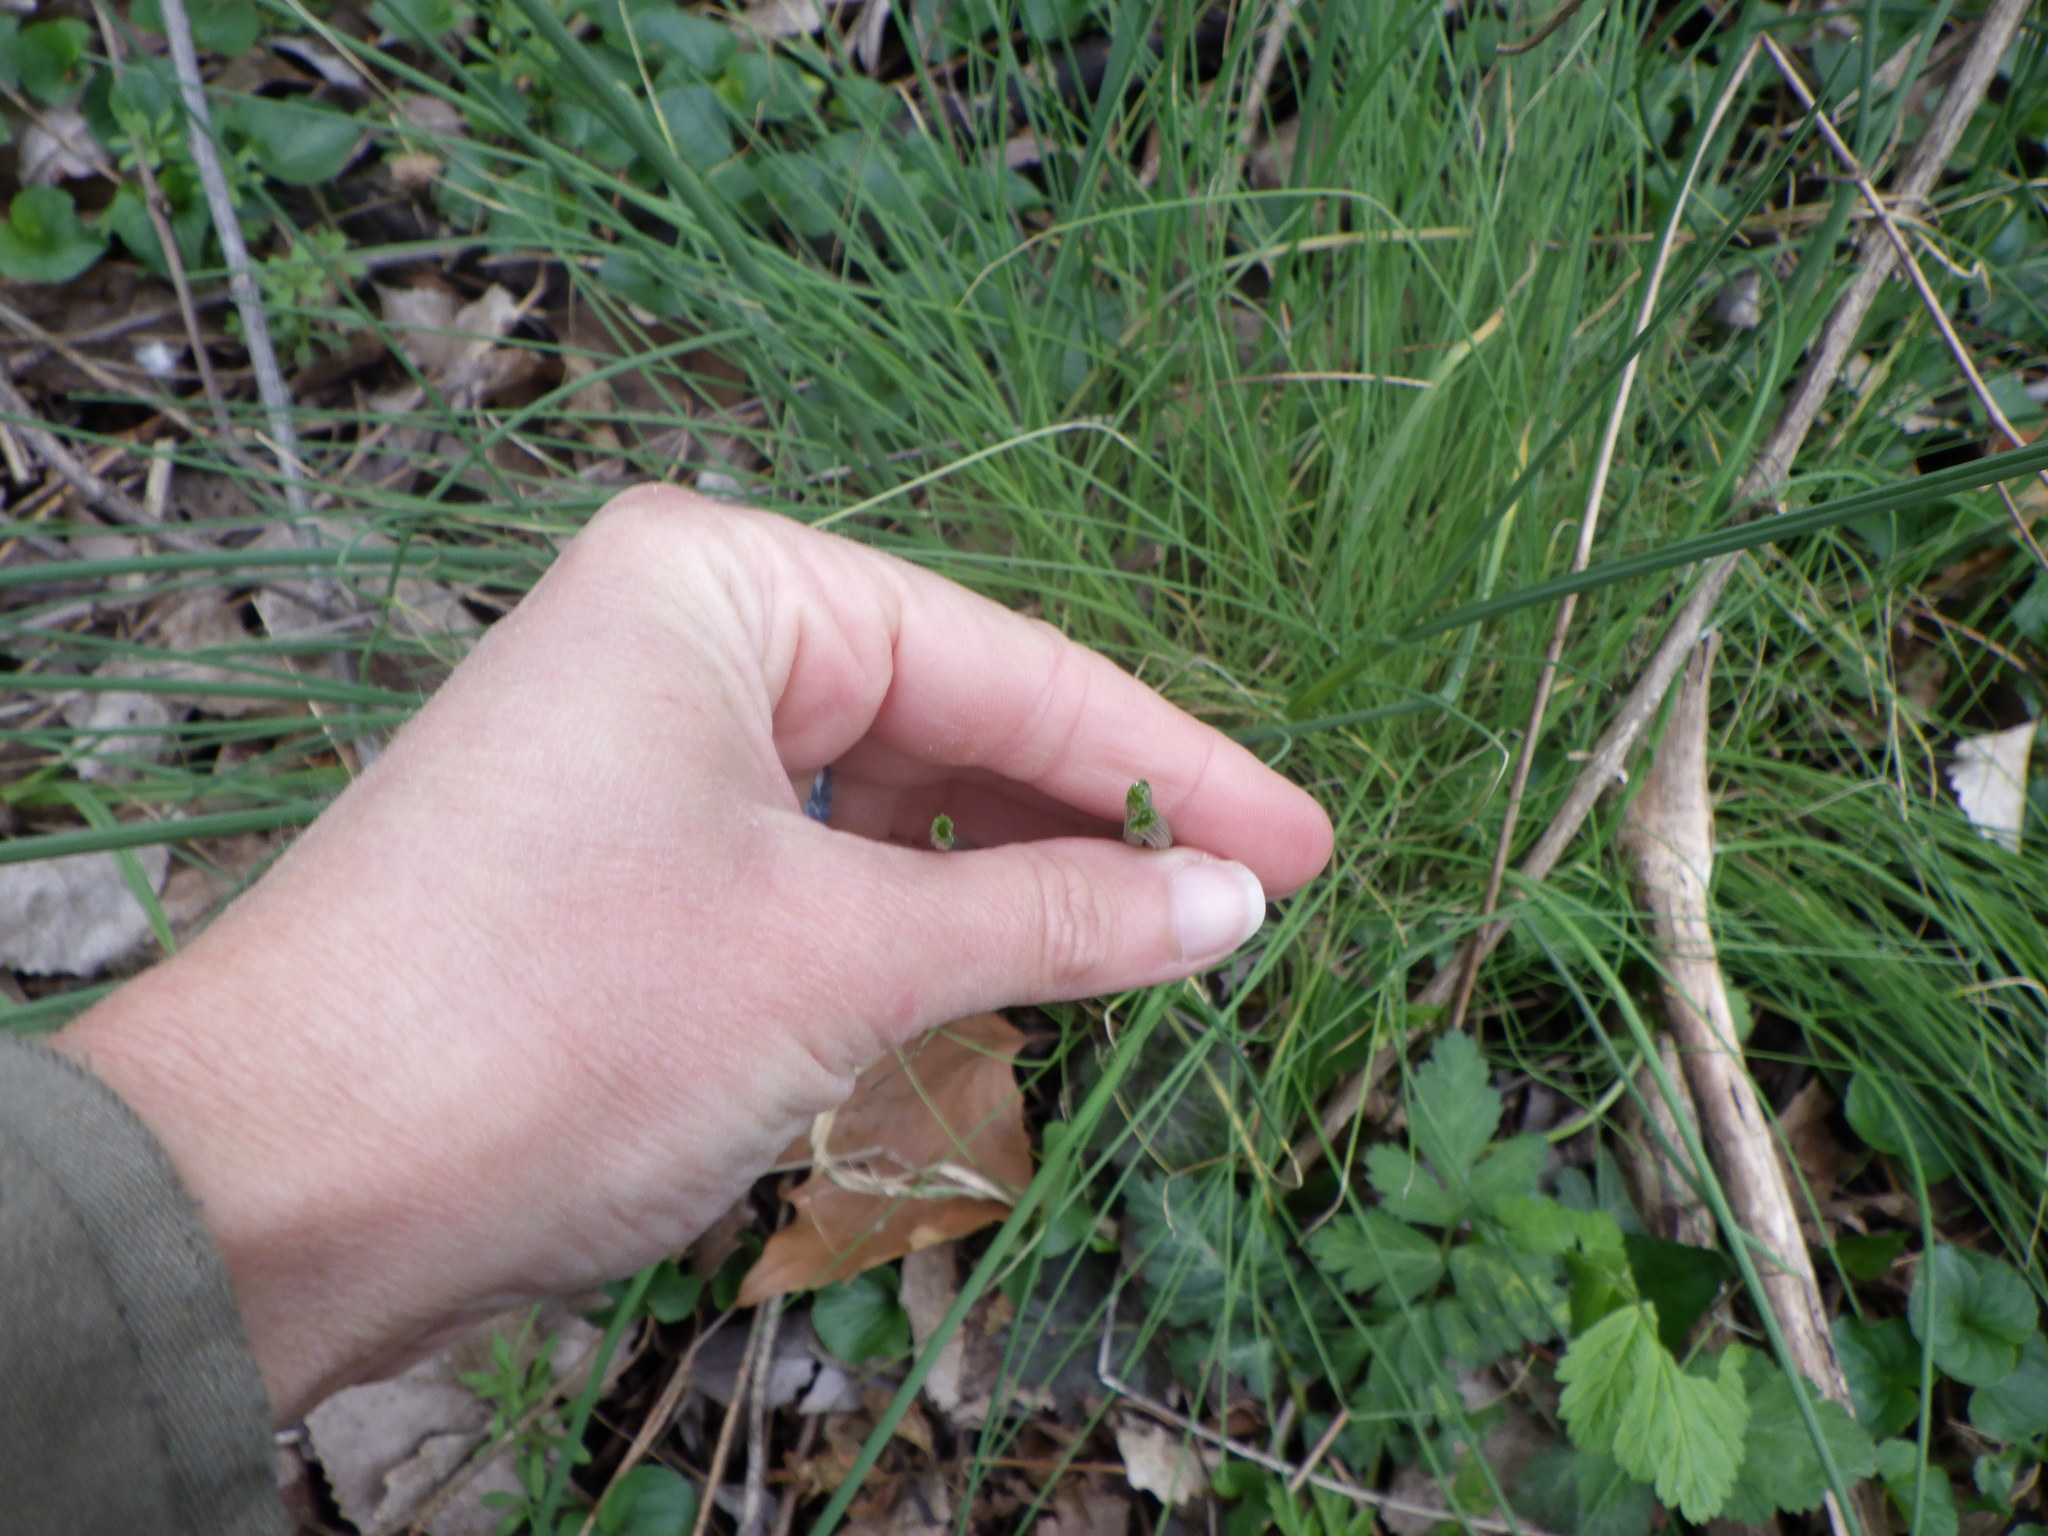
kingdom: Plantae
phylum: Tracheophyta
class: Liliopsida
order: Asparagales
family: Amaryllidaceae
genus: Allium
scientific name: Allium vineale
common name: Crow garlic
